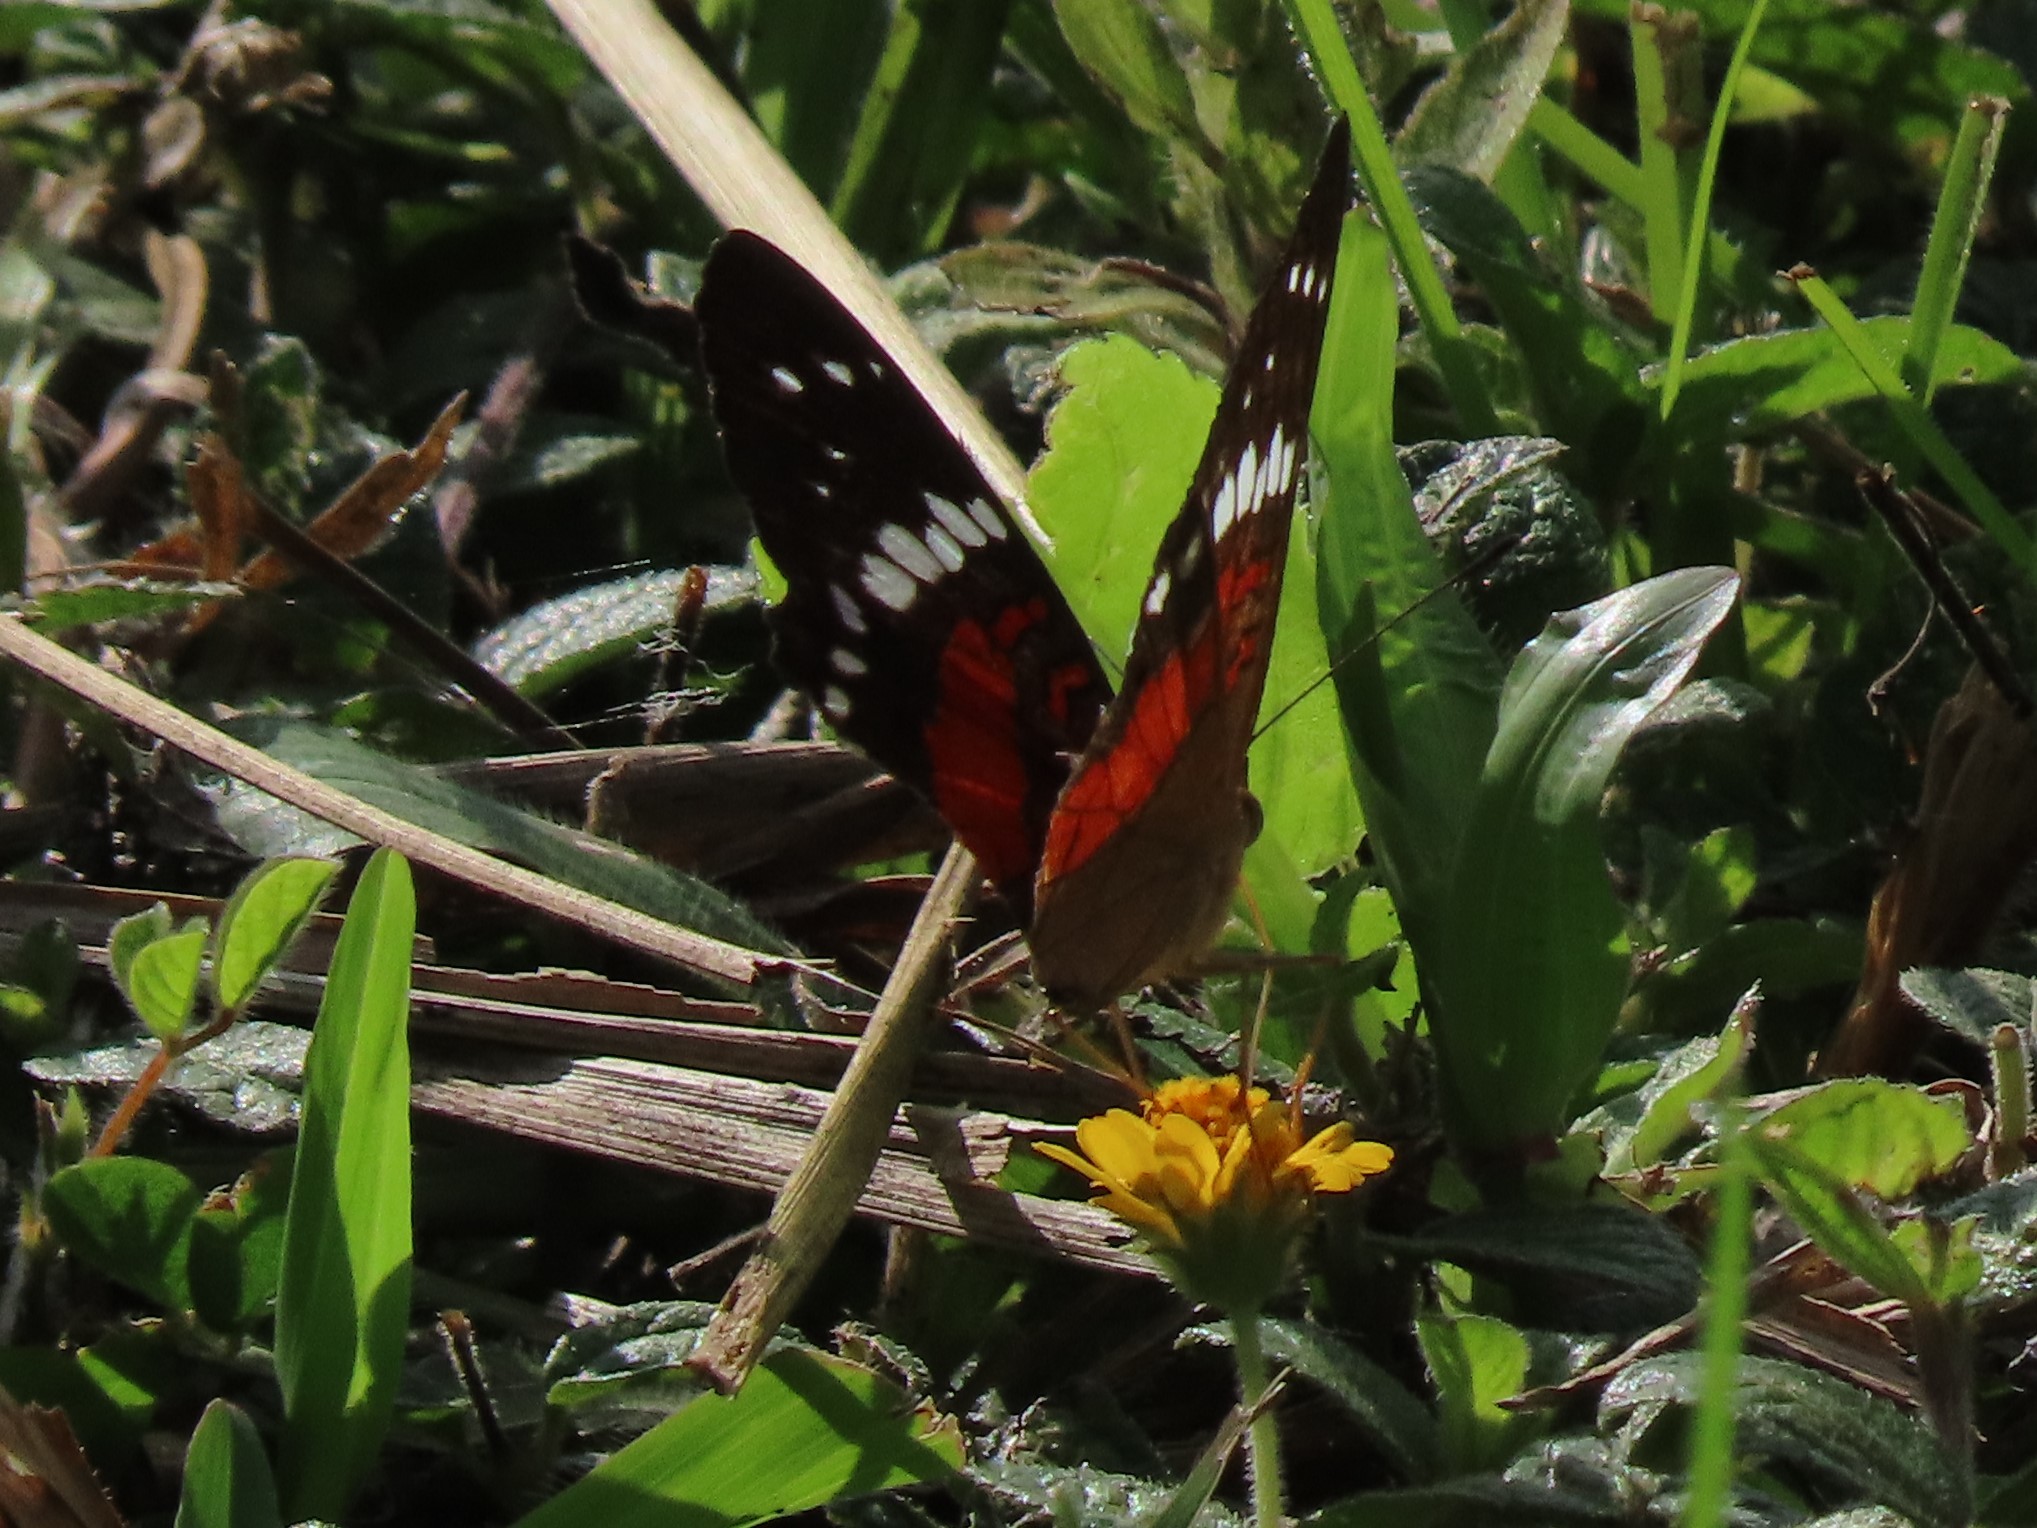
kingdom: Animalia
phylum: Arthropoda
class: Insecta
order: Lepidoptera
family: Nymphalidae
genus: Anartia
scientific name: Anartia amathea
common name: Red peacock
